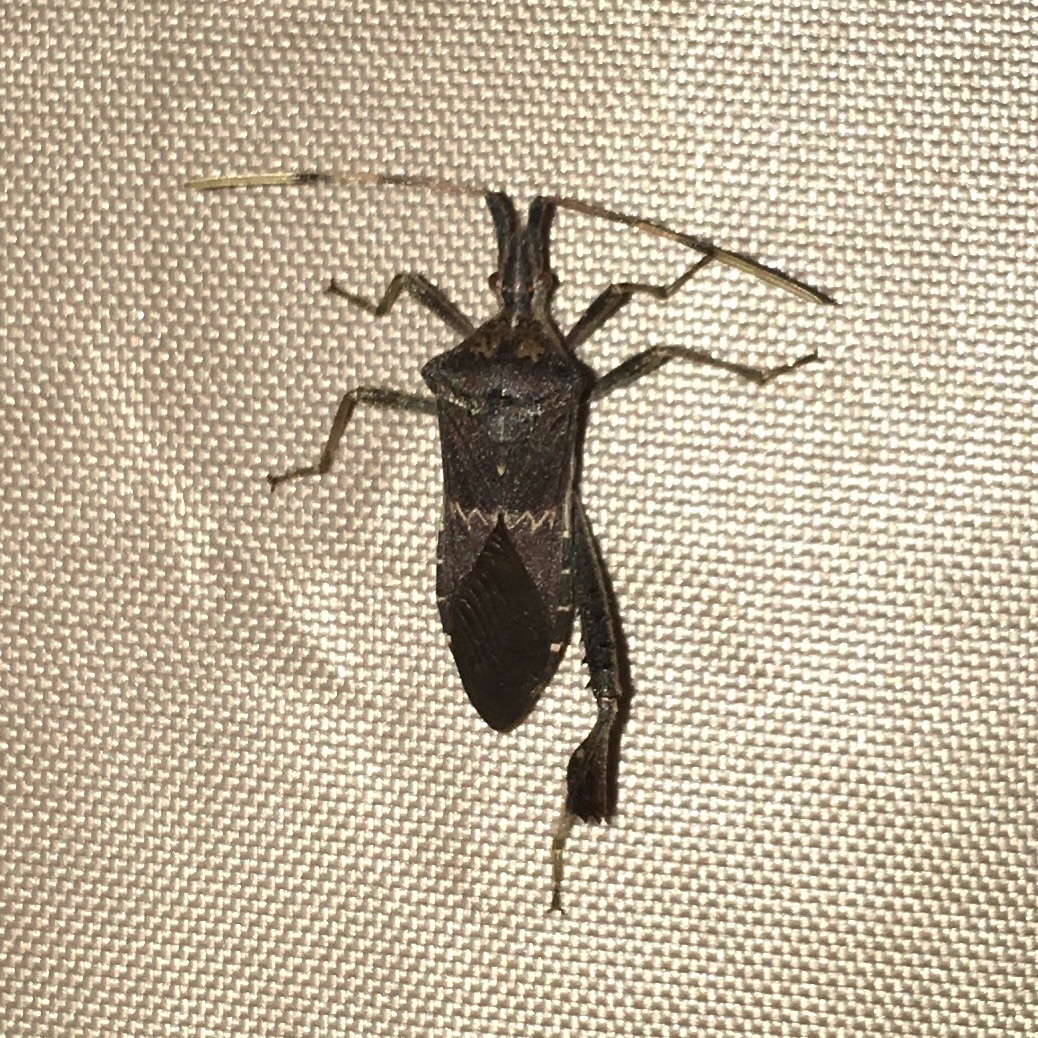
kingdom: Animalia
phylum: Arthropoda
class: Insecta
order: Hemiptera
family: Coreidae
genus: Leptoglossus
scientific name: Leptoglossus zonatus
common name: Large-legged bug
